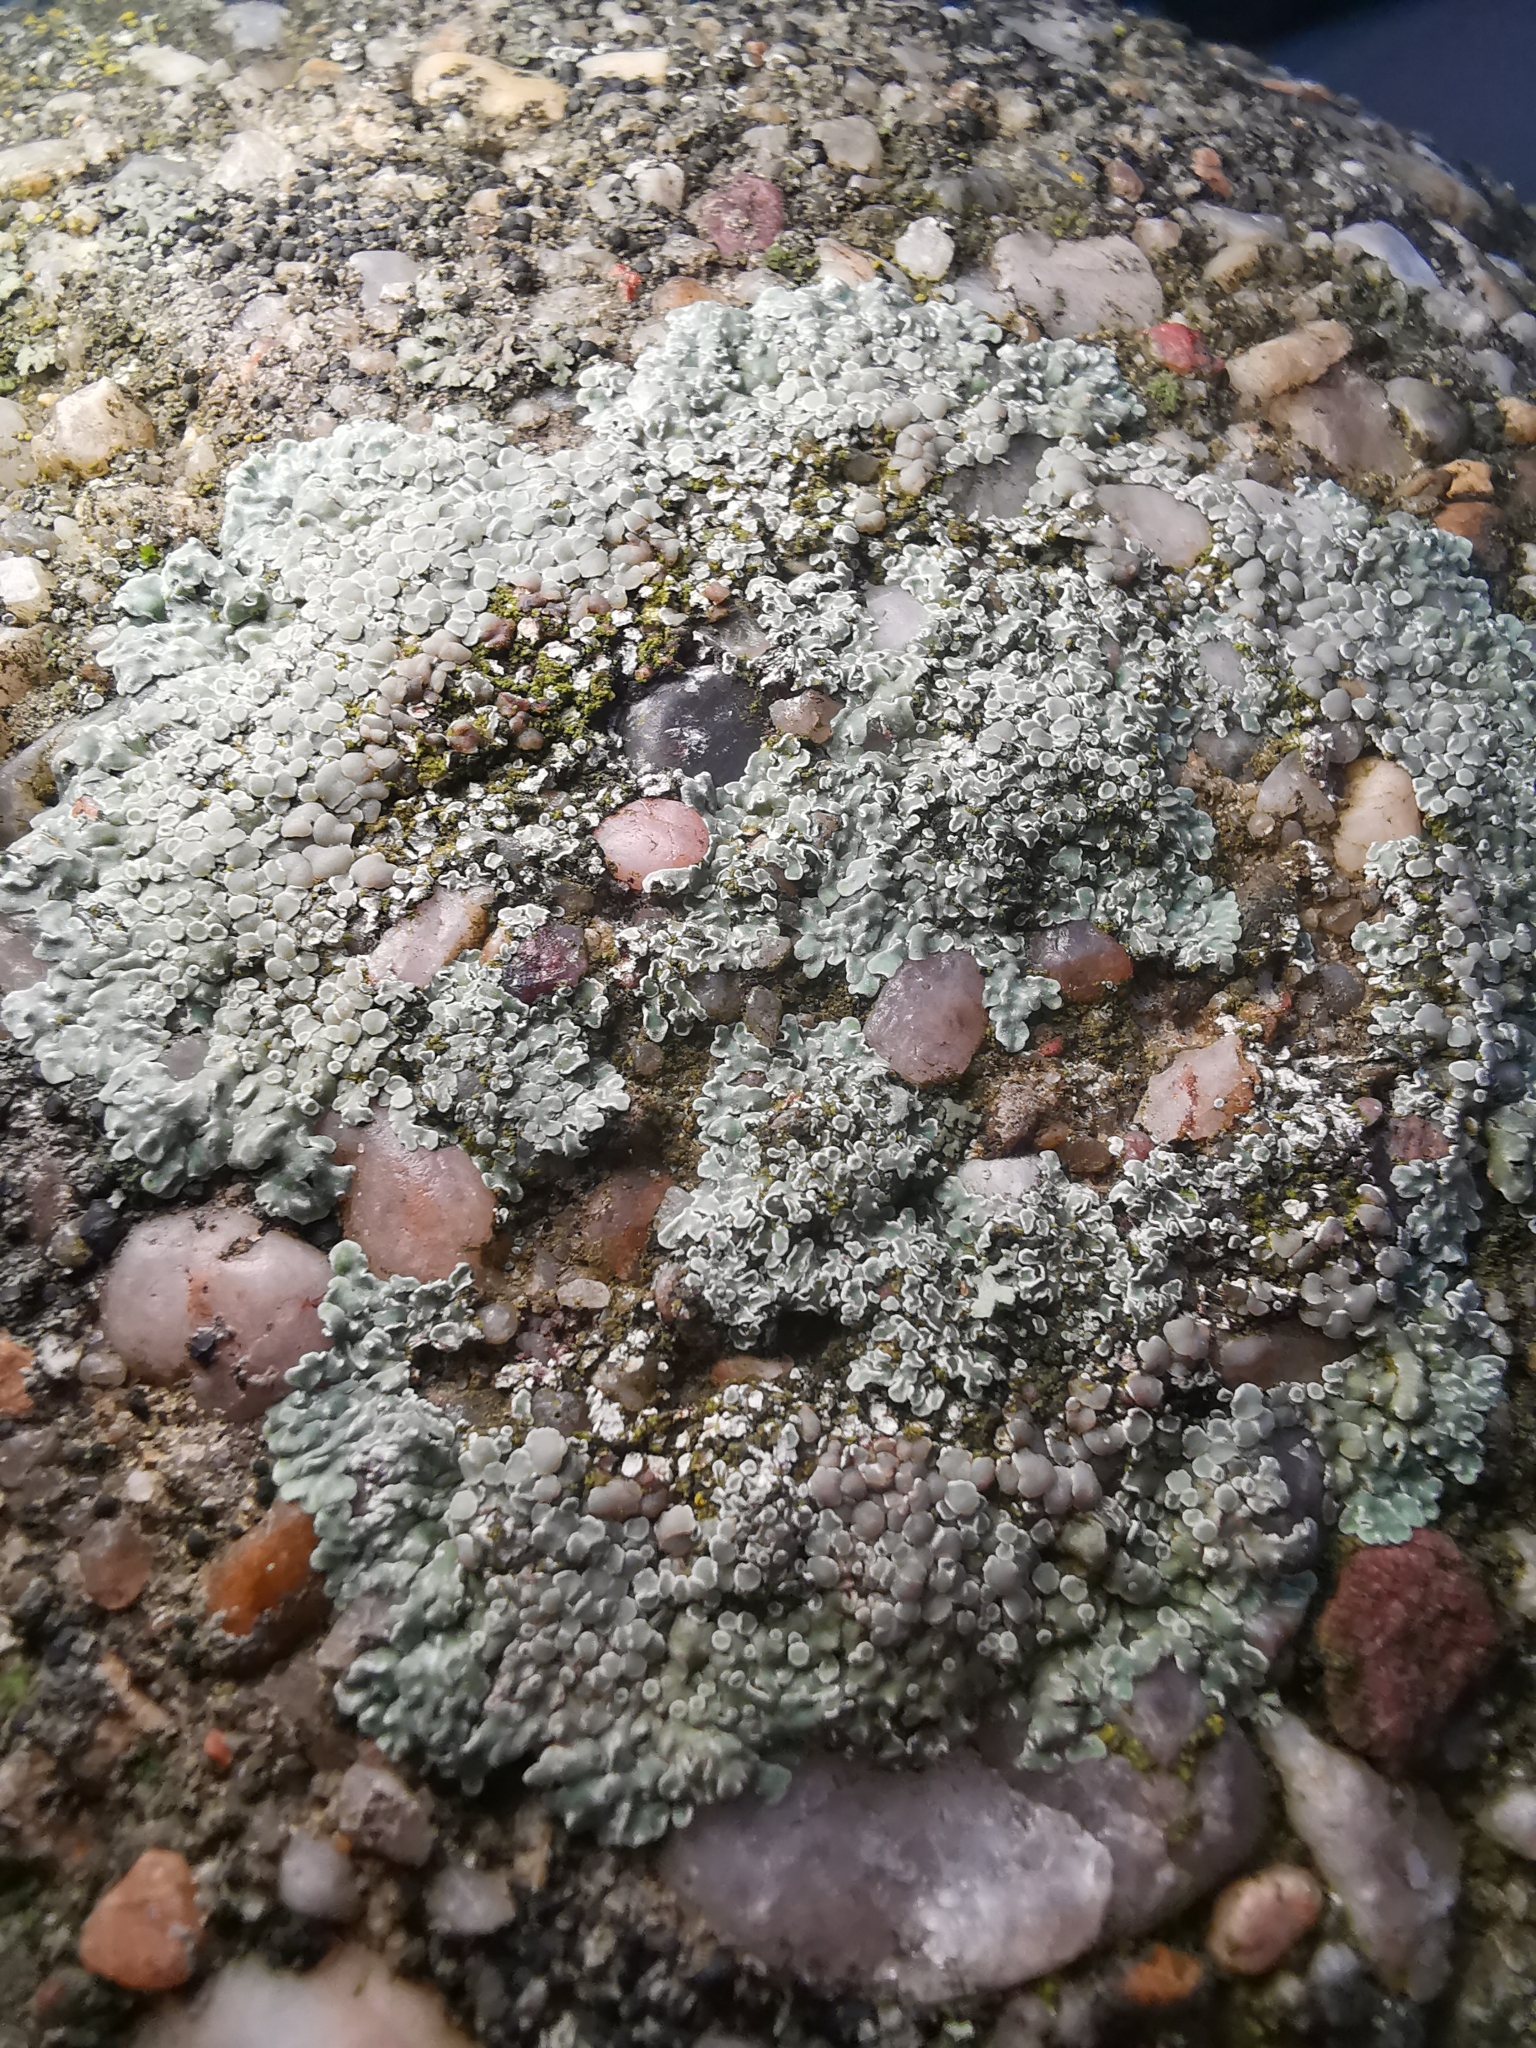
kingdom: Fungi
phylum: Ascomycota
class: Lecanoromycetes
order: Lecanorales
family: Lecanoraceae
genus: Protoparmeliopsis
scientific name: Protoparmeliopsis muralis
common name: Stonewall rim lichen
